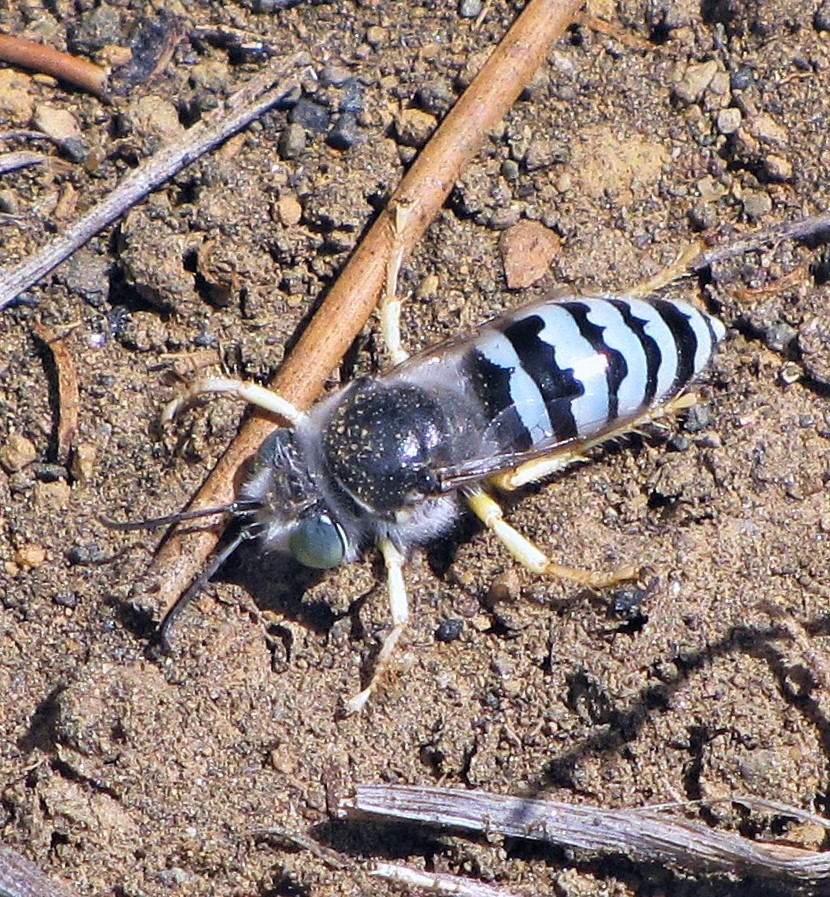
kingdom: Animalia
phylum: Arthropoda
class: Insecta
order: Hymenoptera
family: Crabronidae
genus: Bembix
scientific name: Bembix brullei
